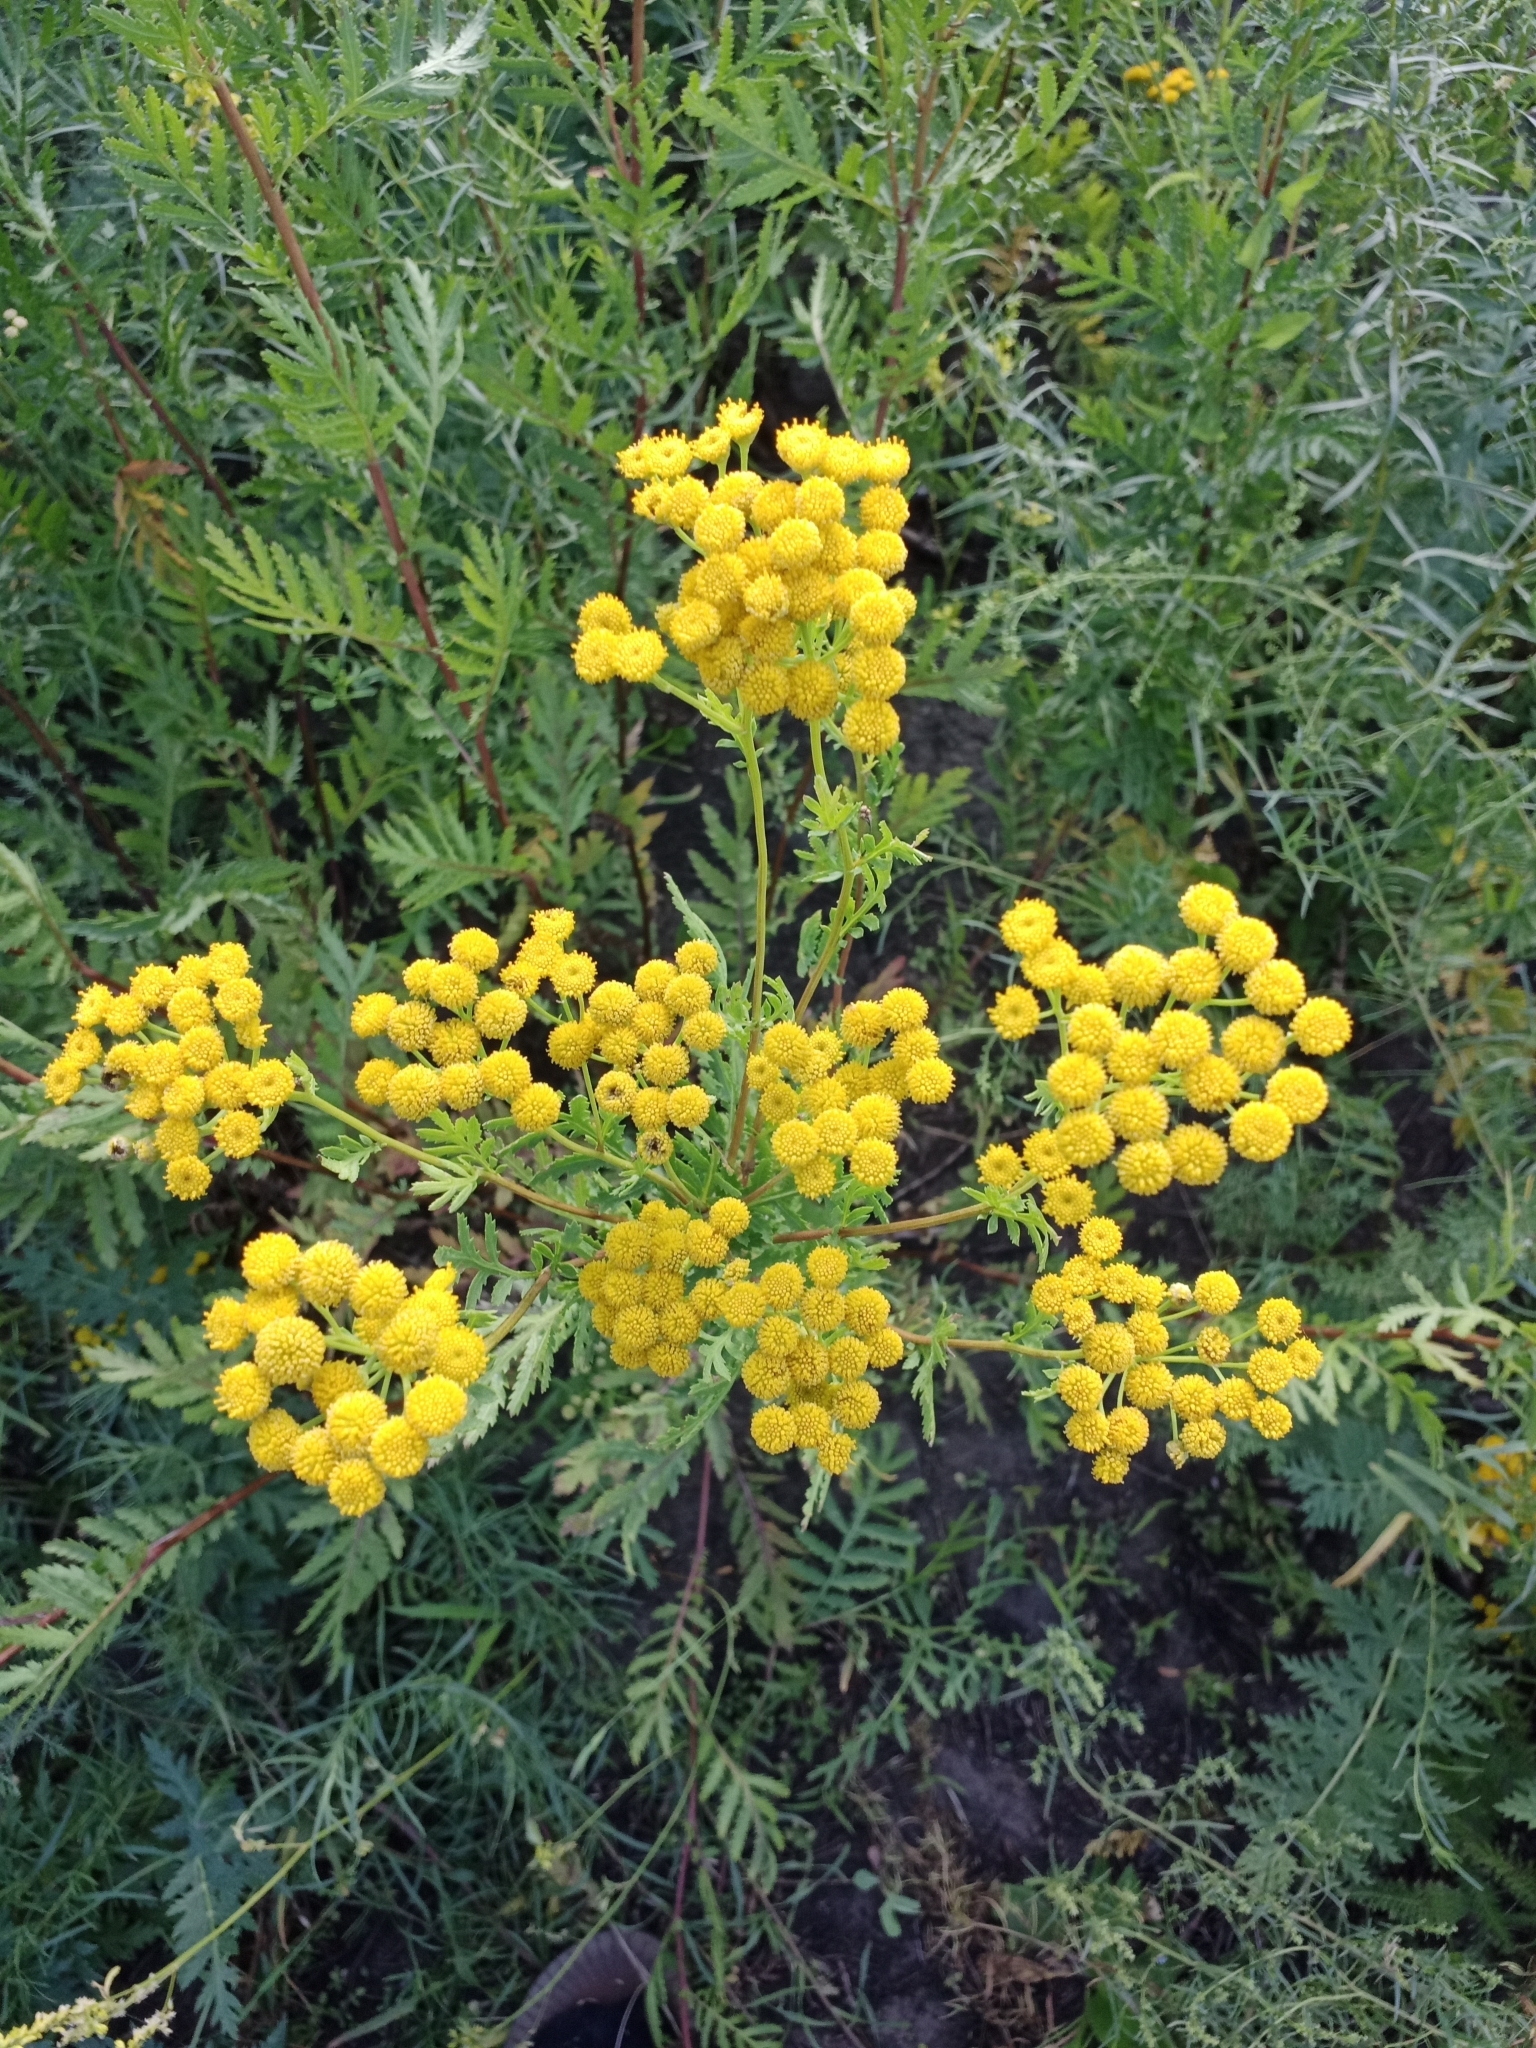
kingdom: Plantae
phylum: Tracheophyta
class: Magnoliopsida
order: Asterales
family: Asteraceae
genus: Tanacetum
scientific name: Tanacetum vulgare
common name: Common tansy
